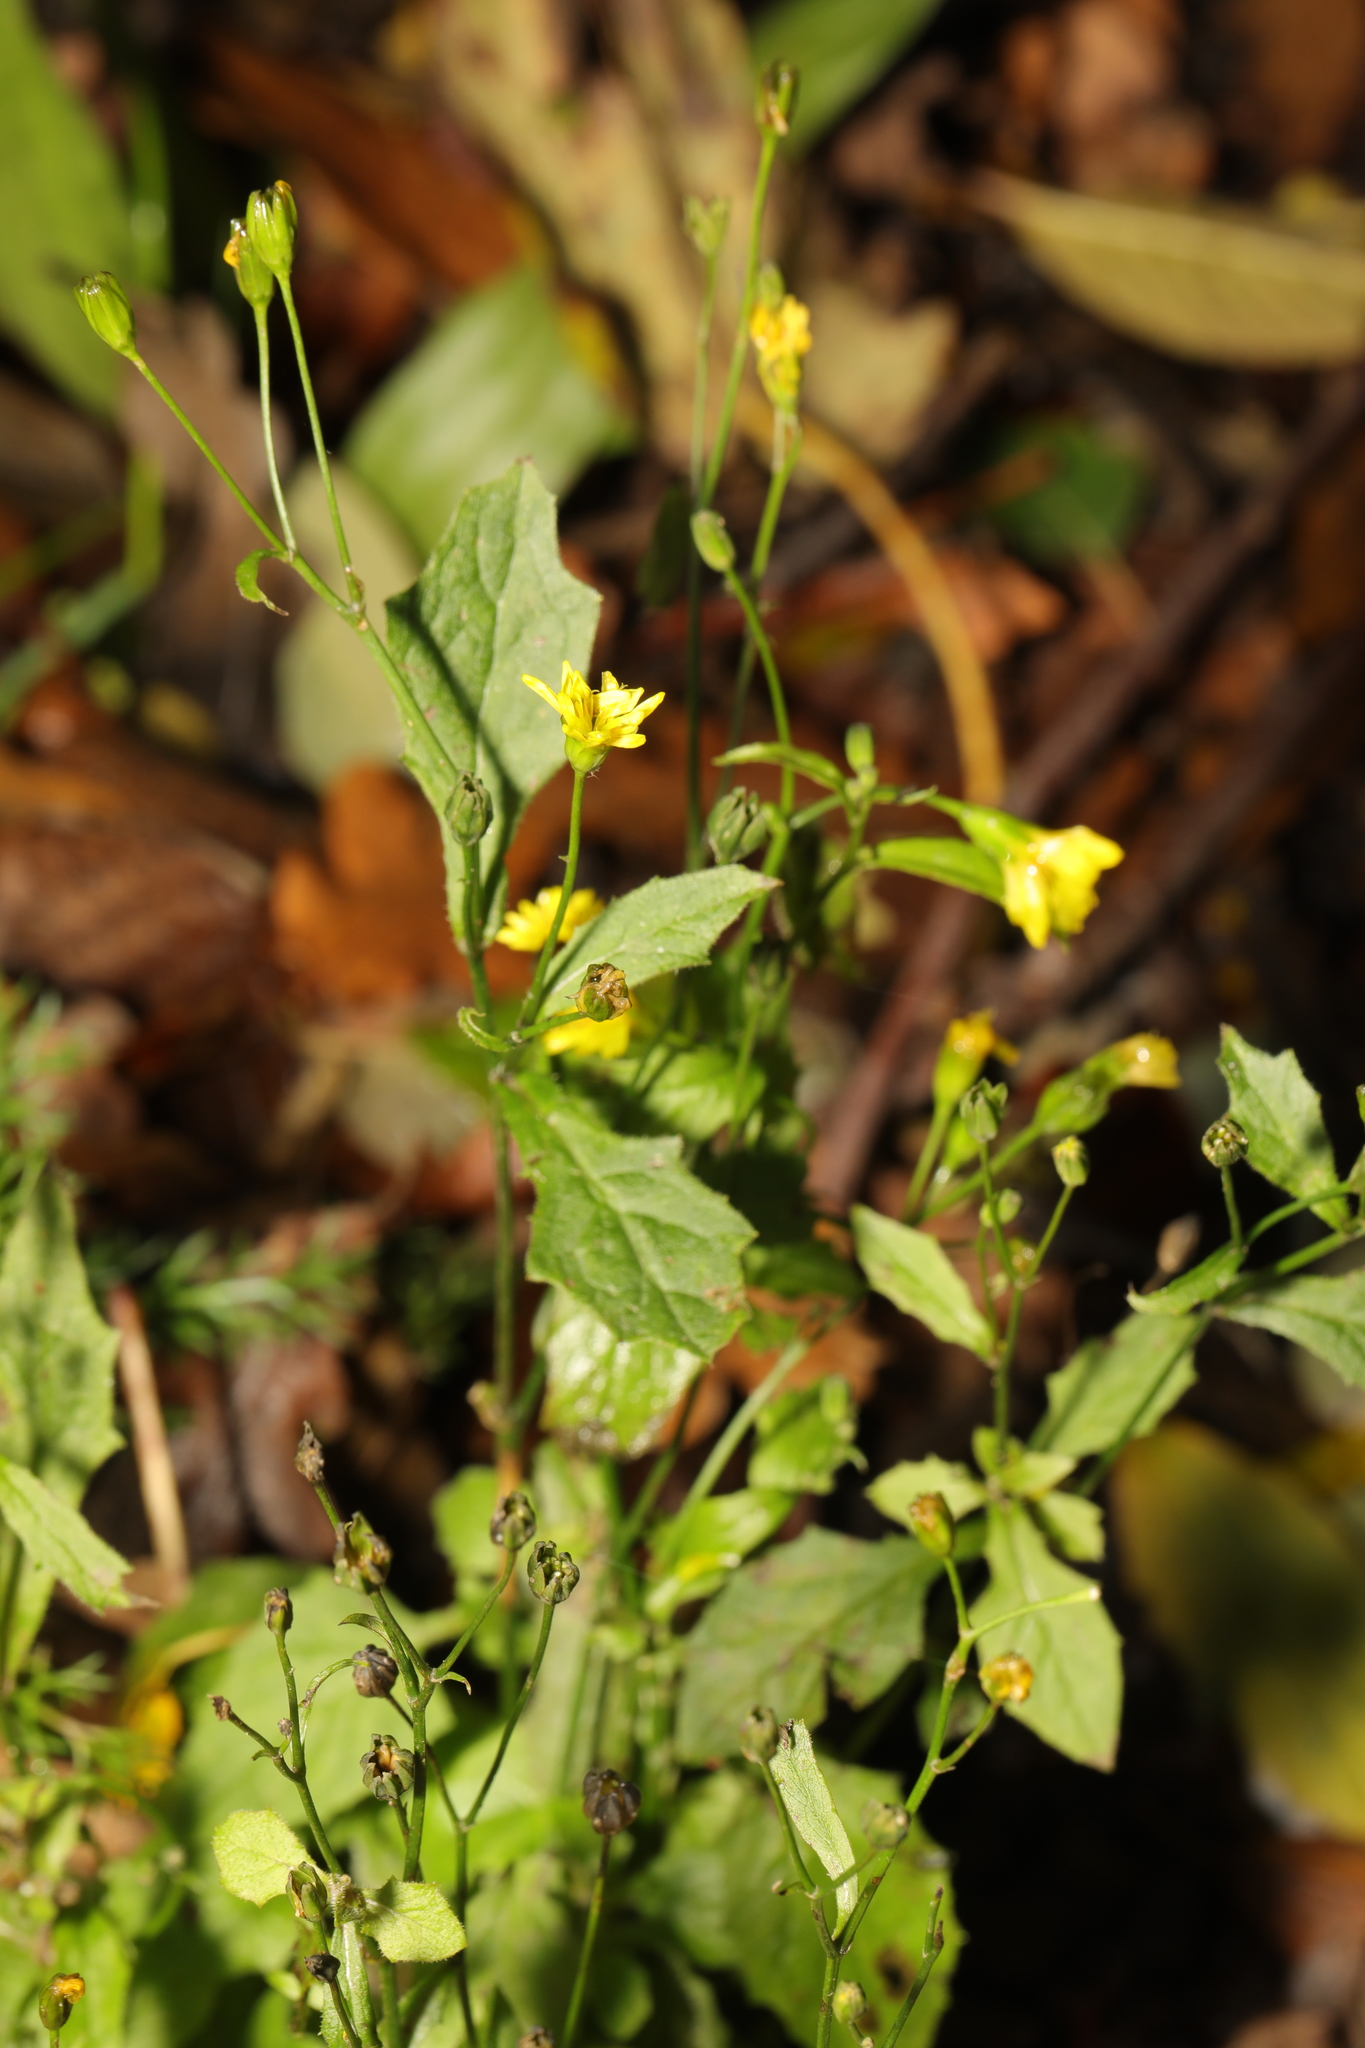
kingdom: Plantae
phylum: Tracheophyta
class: Magnoliopsida
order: Asterales
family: Asteraceae
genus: Lapsana
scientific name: Lapsana communis
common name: Nipplewort
